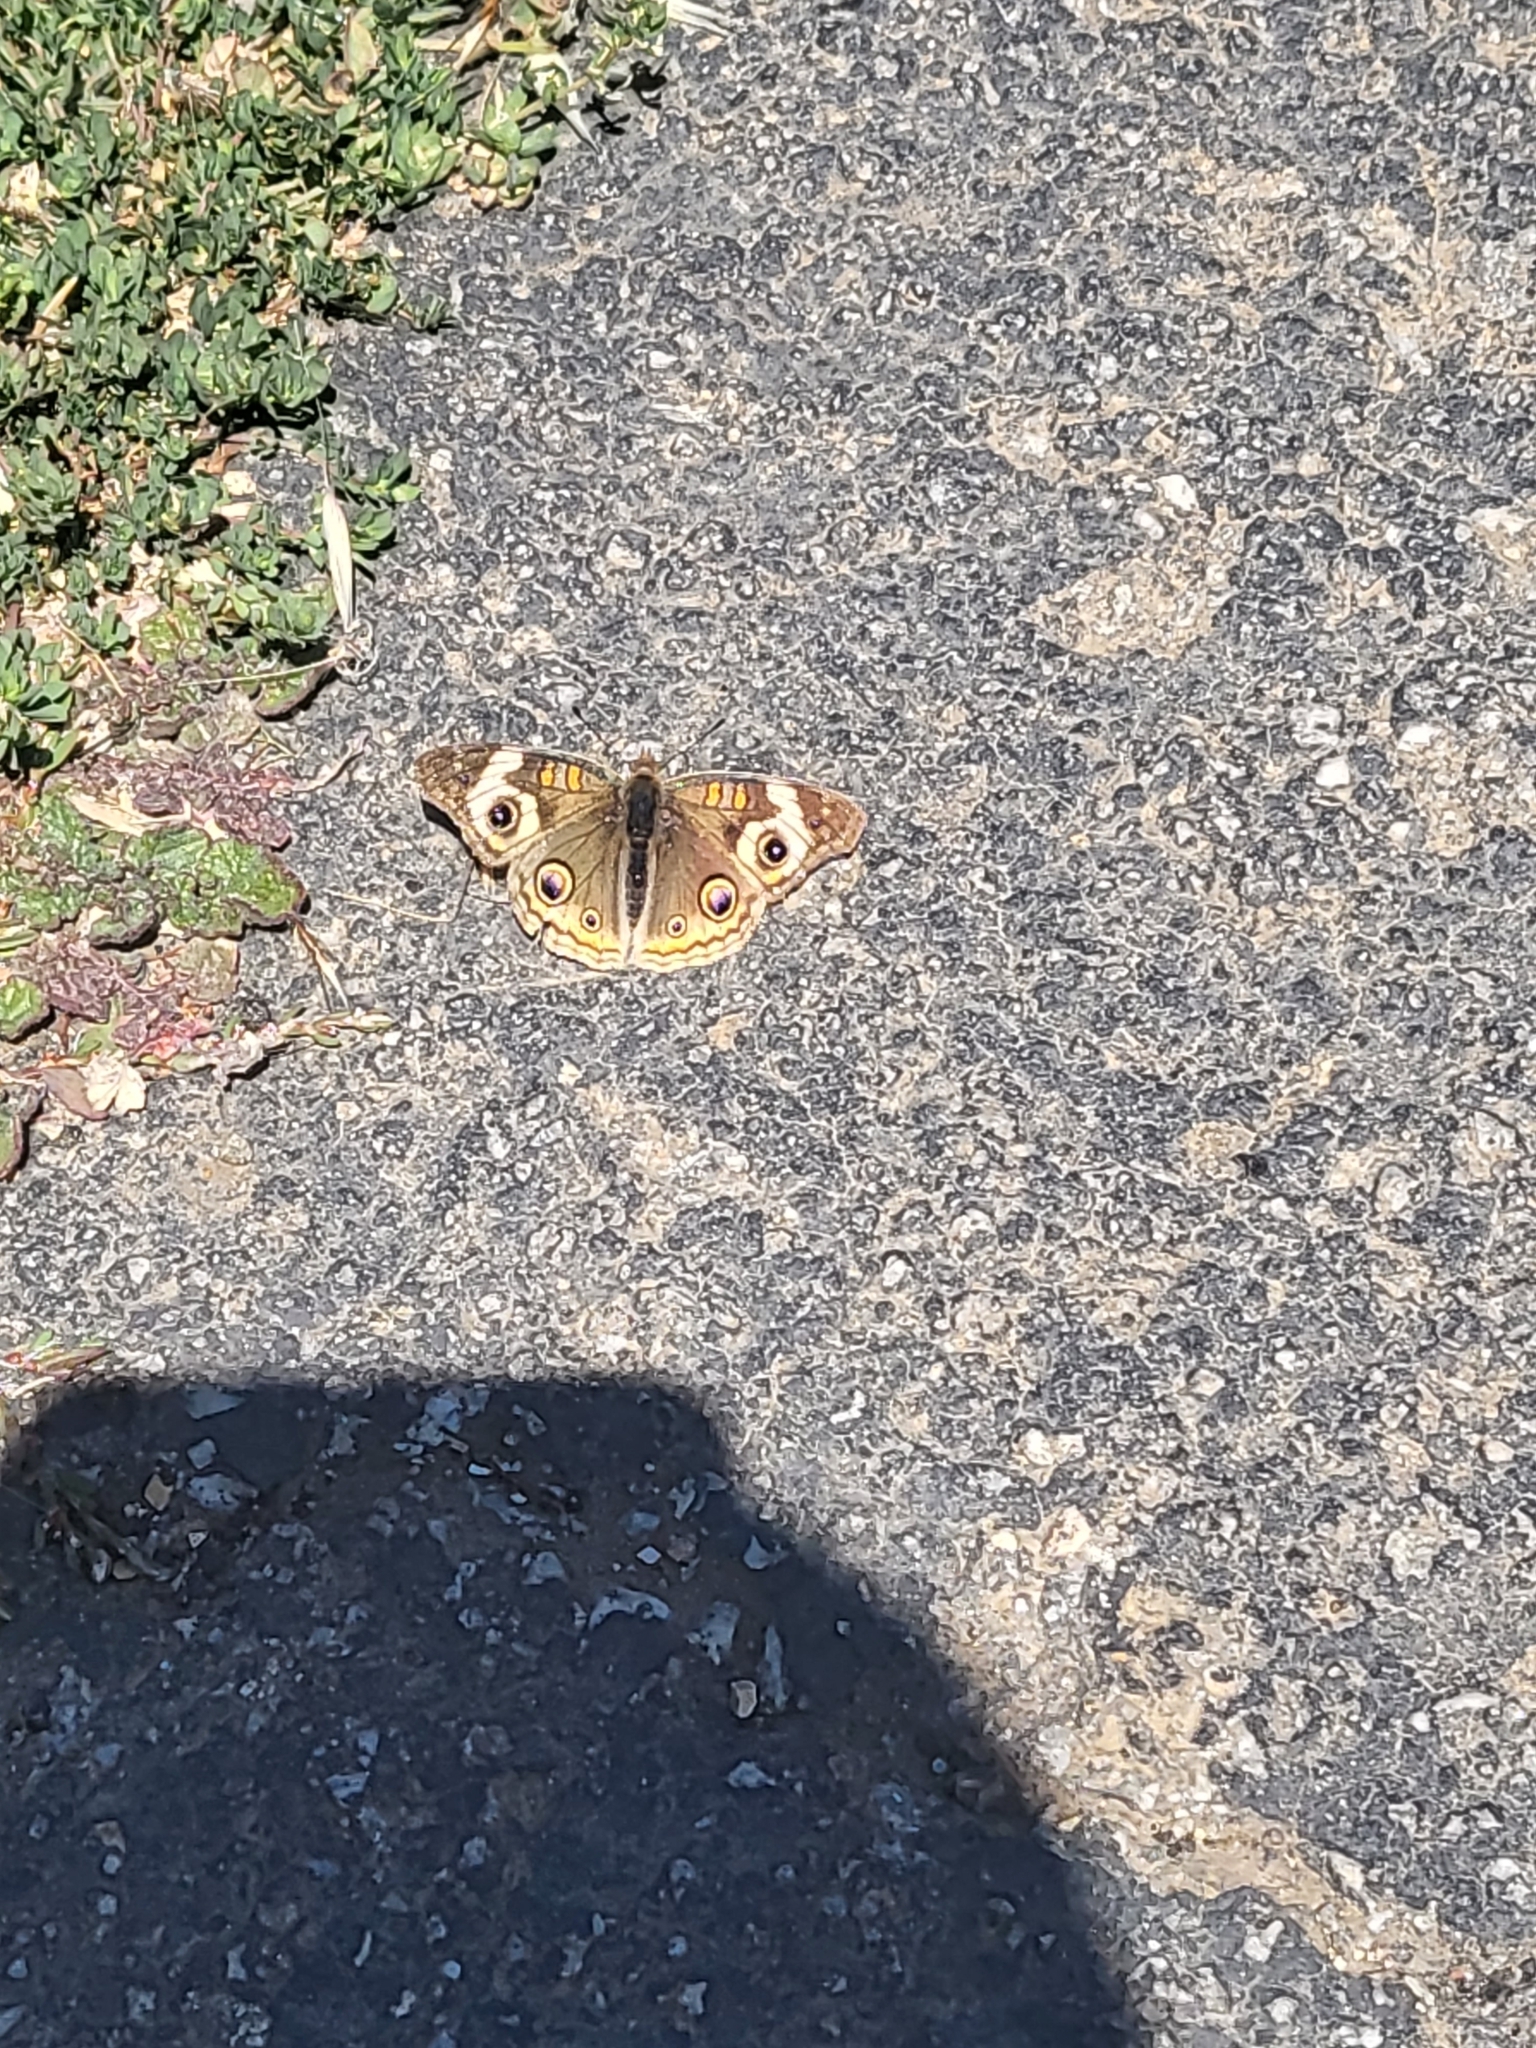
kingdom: Animalia
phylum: Arthropoda
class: Insecta
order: Lepidoptera
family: Nymphalidae
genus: Junonia
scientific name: Junonia grisea
